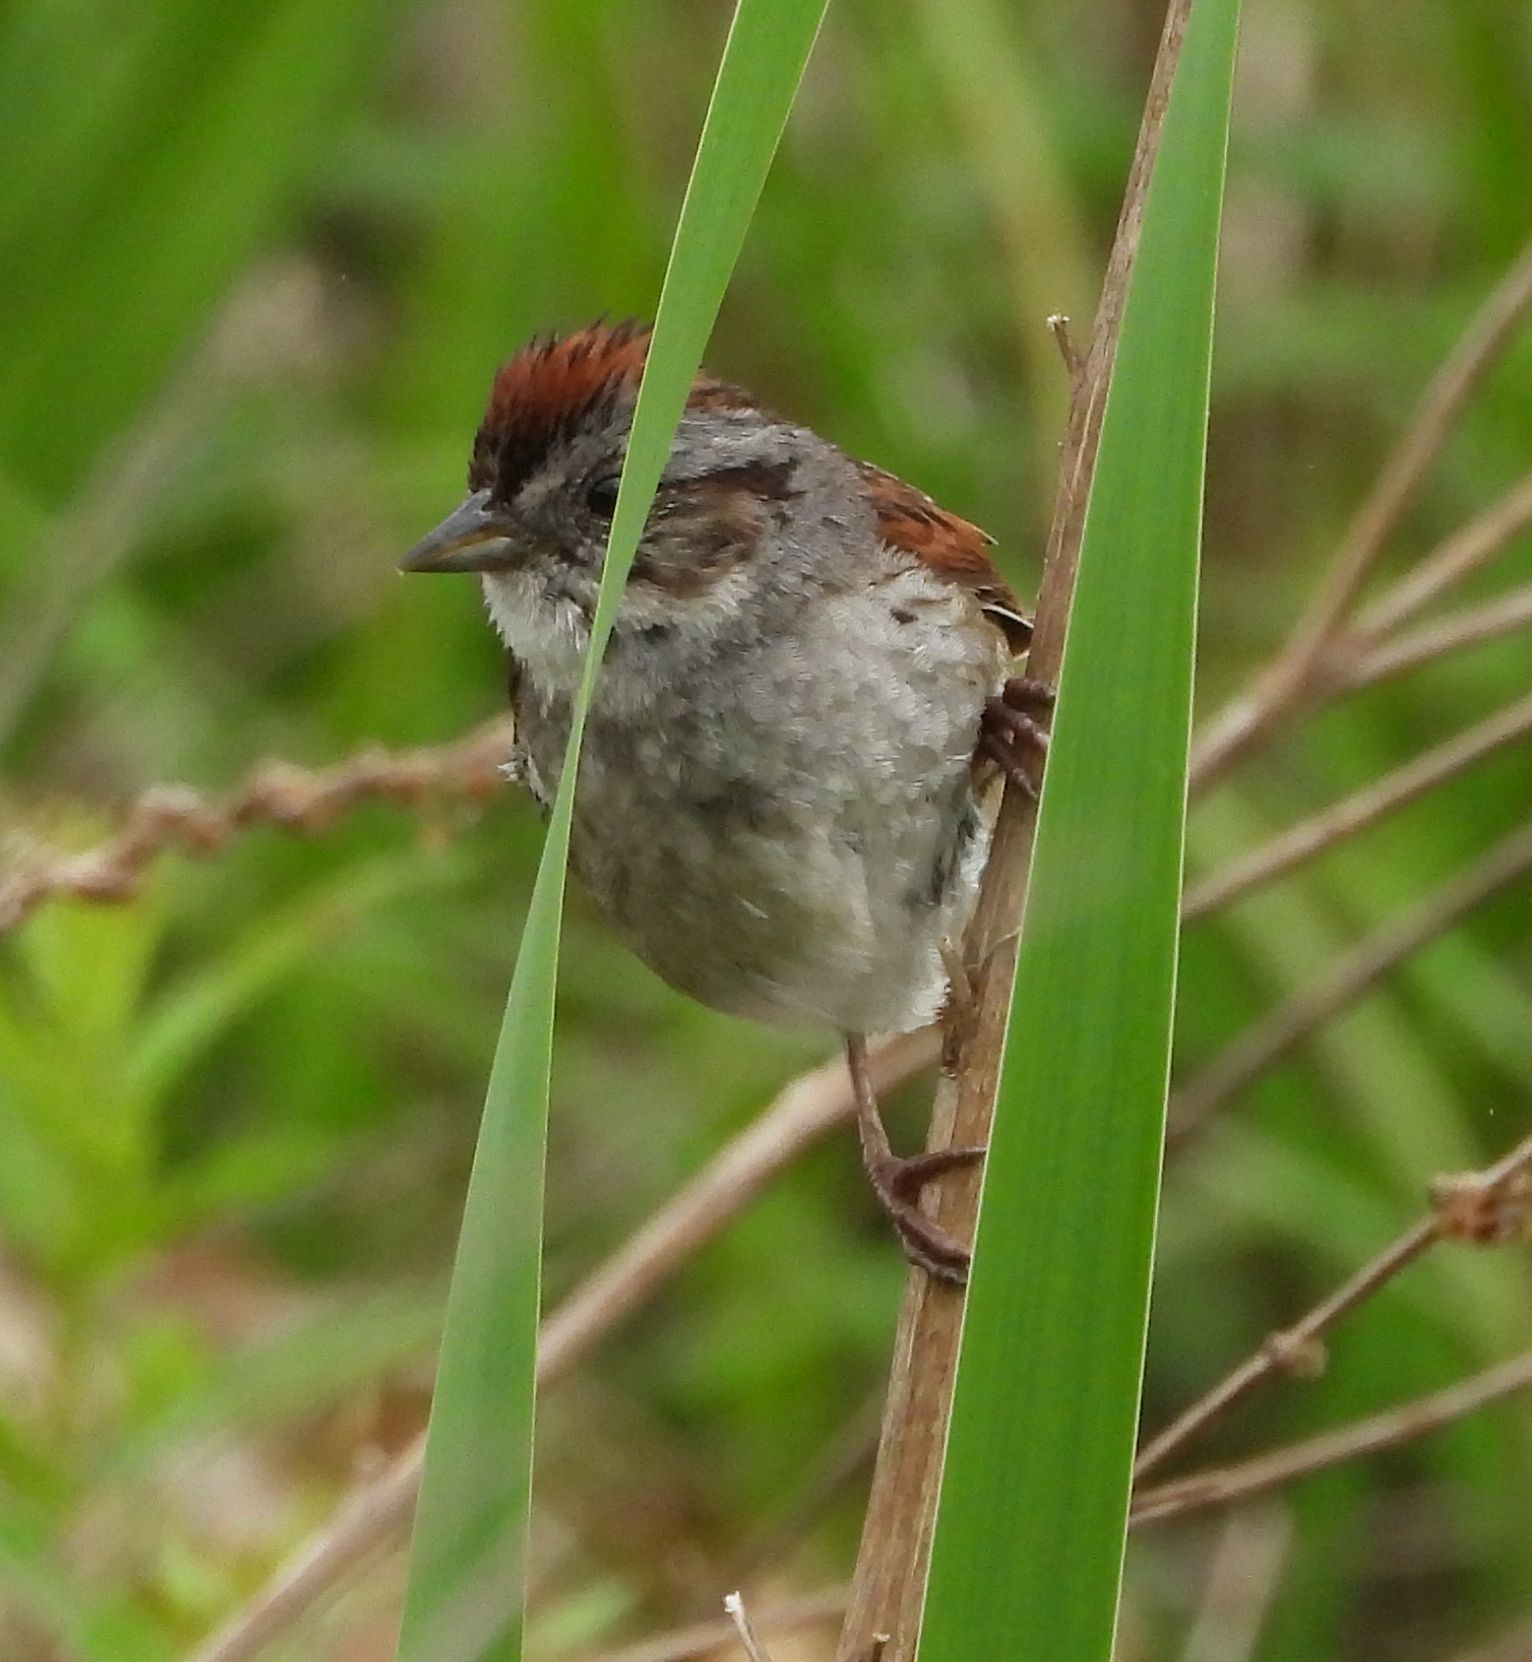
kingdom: Animalia
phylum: Chordata
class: Aves
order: Passeriformes
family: Passerellidae
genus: Melospiza
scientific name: Melospiza georgiana
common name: Swamp sparrow
